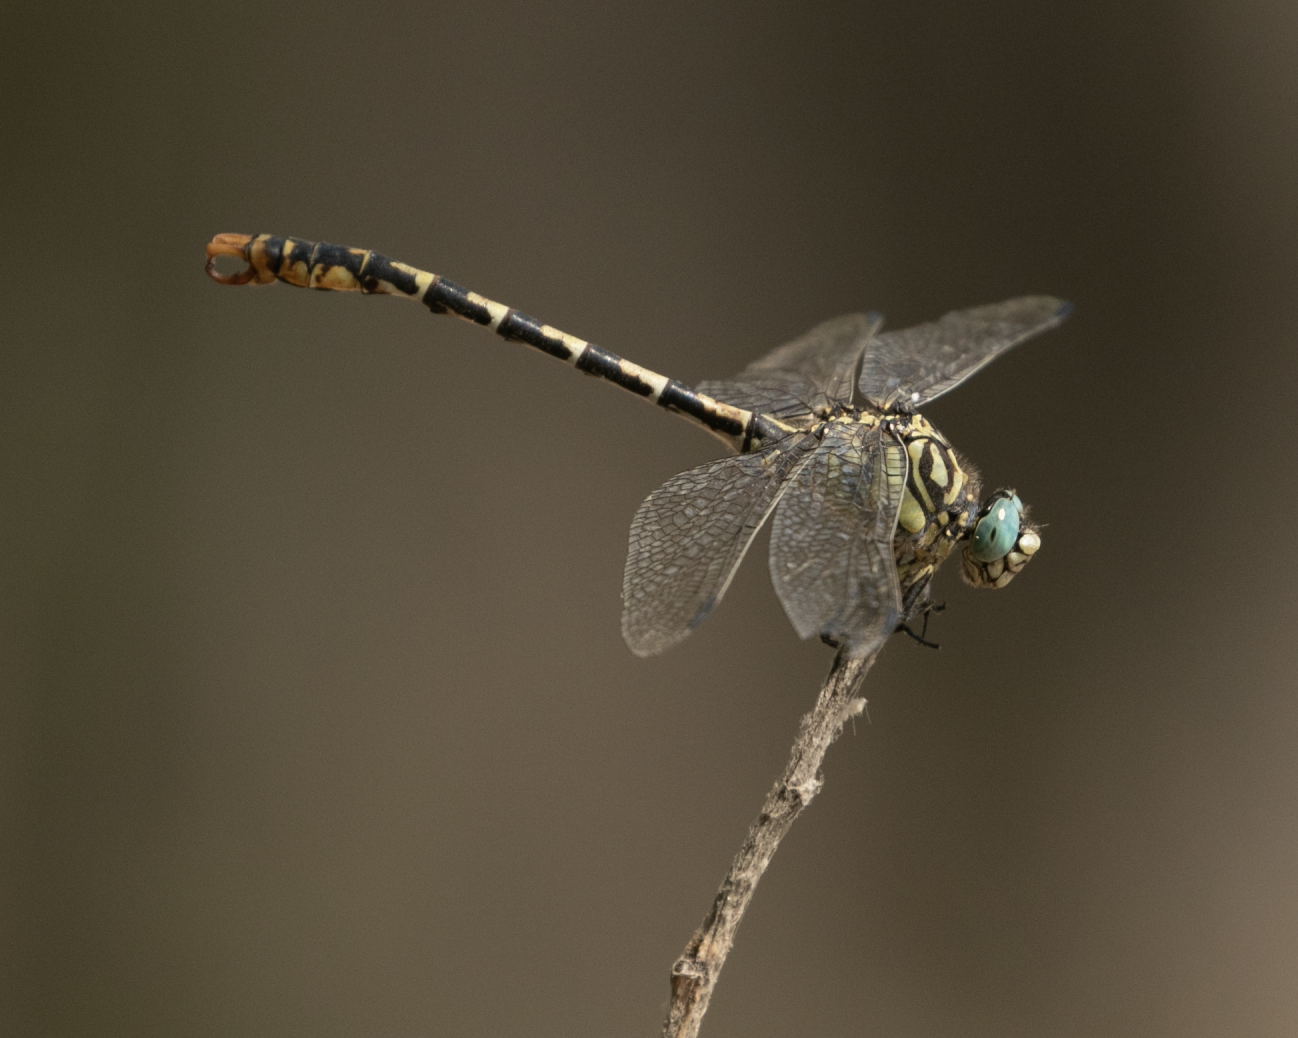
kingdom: Animalia
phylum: Arthropoda
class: Insecta
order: Odonata
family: Gomphidae
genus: Onychogomphus
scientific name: Onychogomphus forcipatus
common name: Small pincertail
